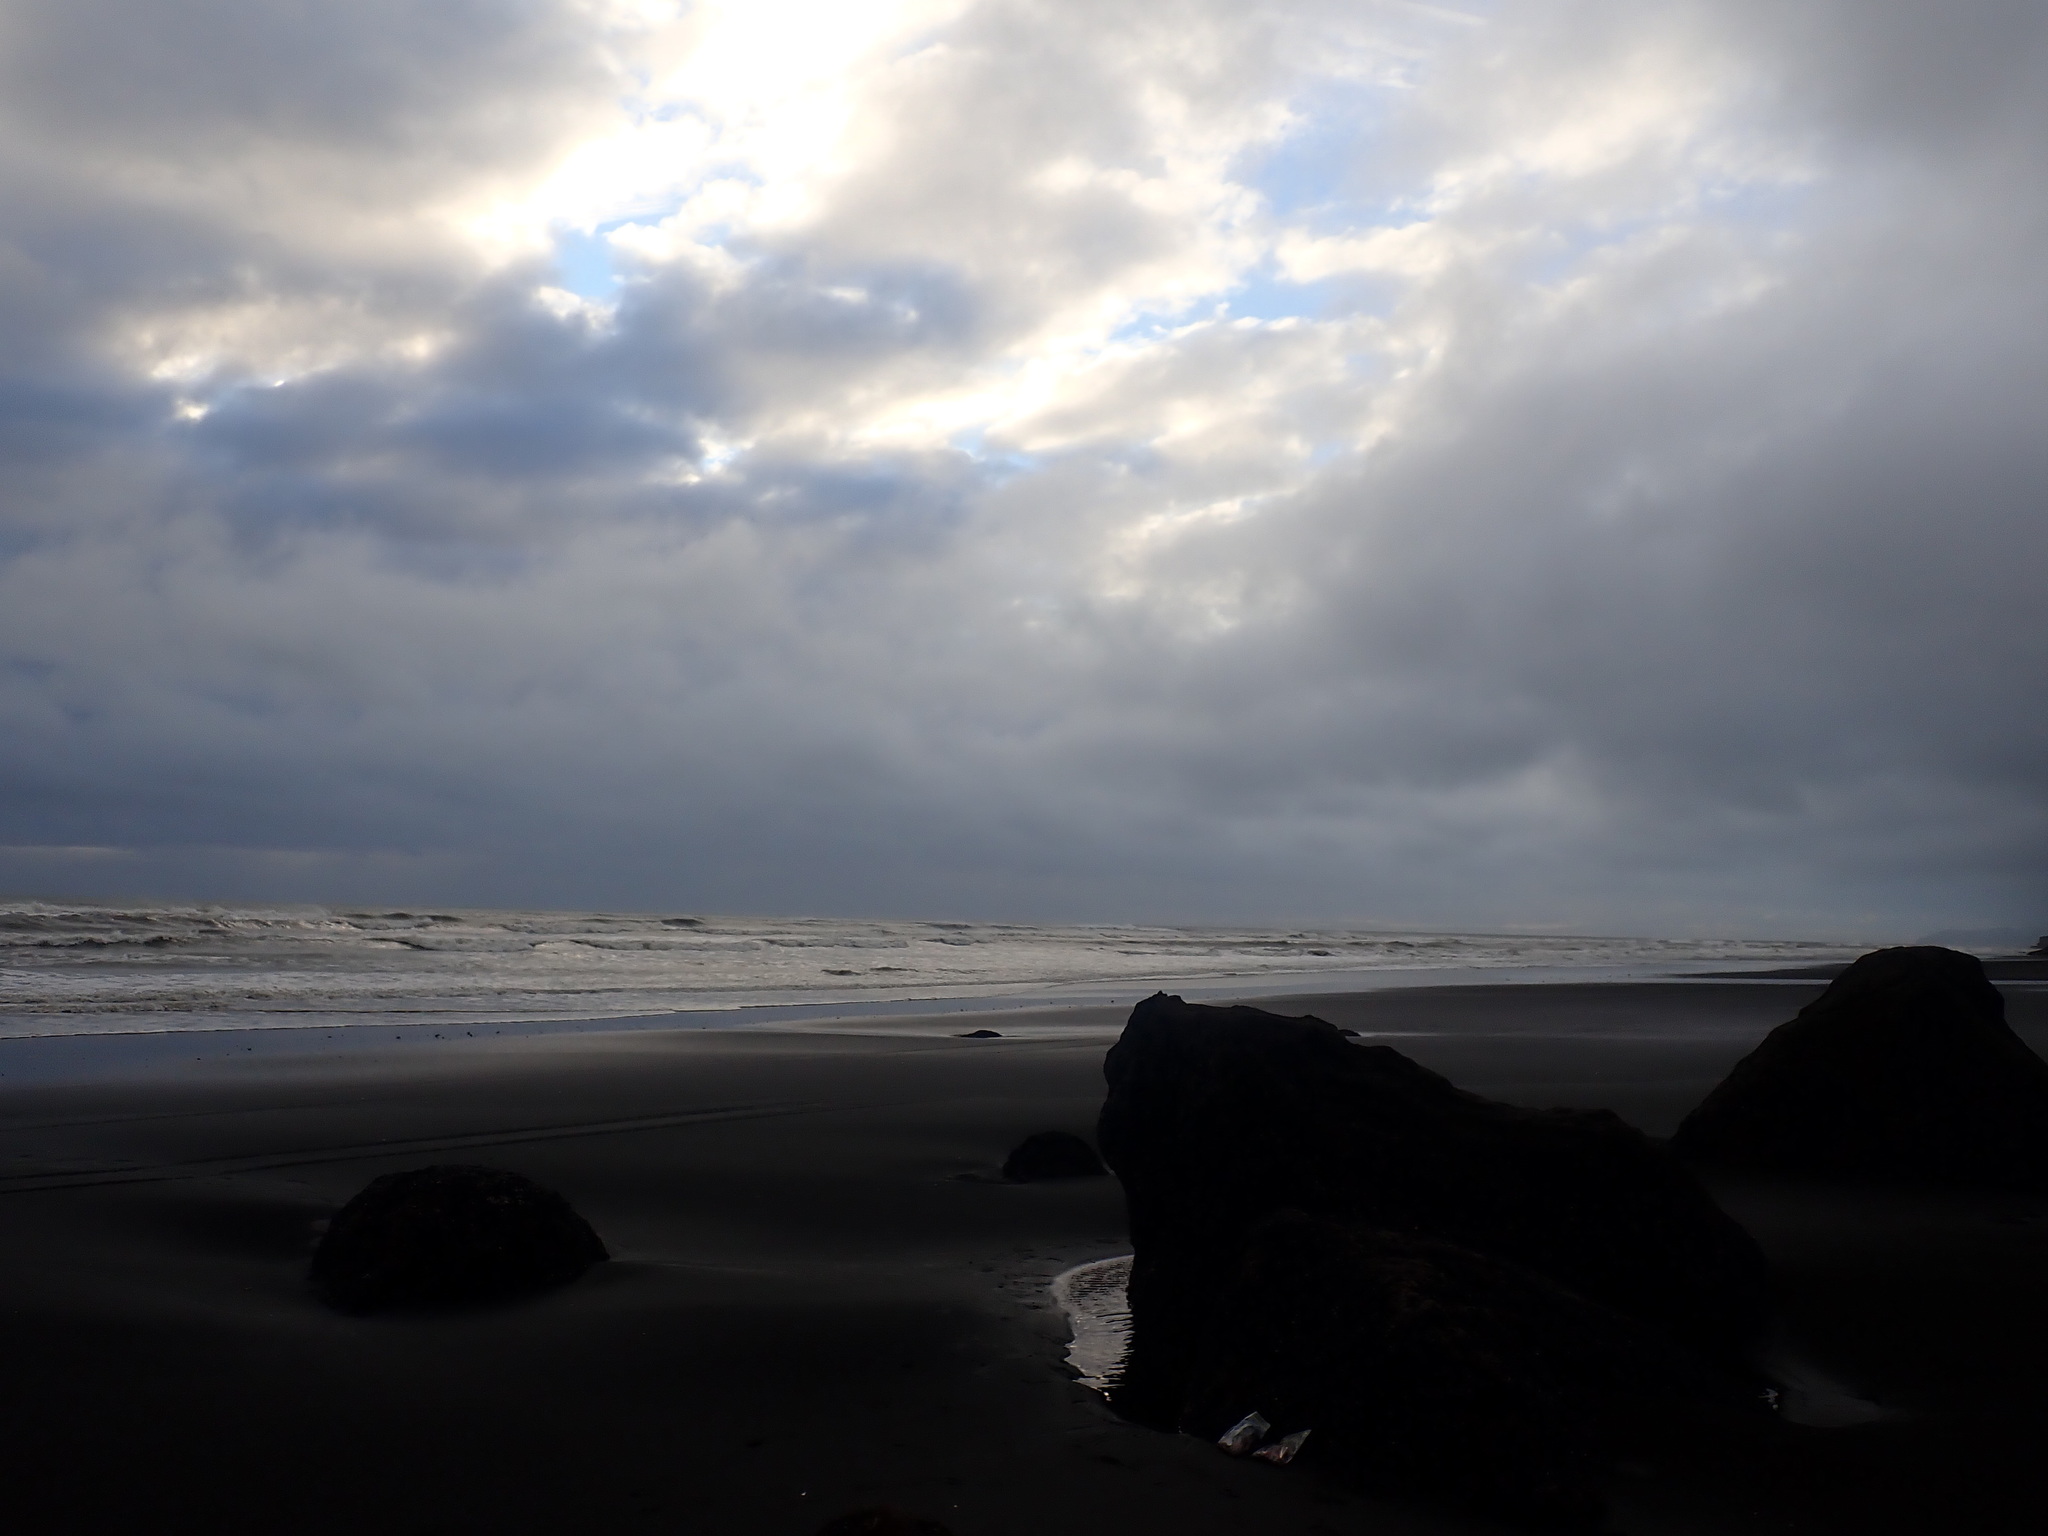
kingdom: Animalia
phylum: Mollusca
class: Bivalvia
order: Mytilida
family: Mytilidae
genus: Xenostrobus
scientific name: Xenostrobus neozelanicus
